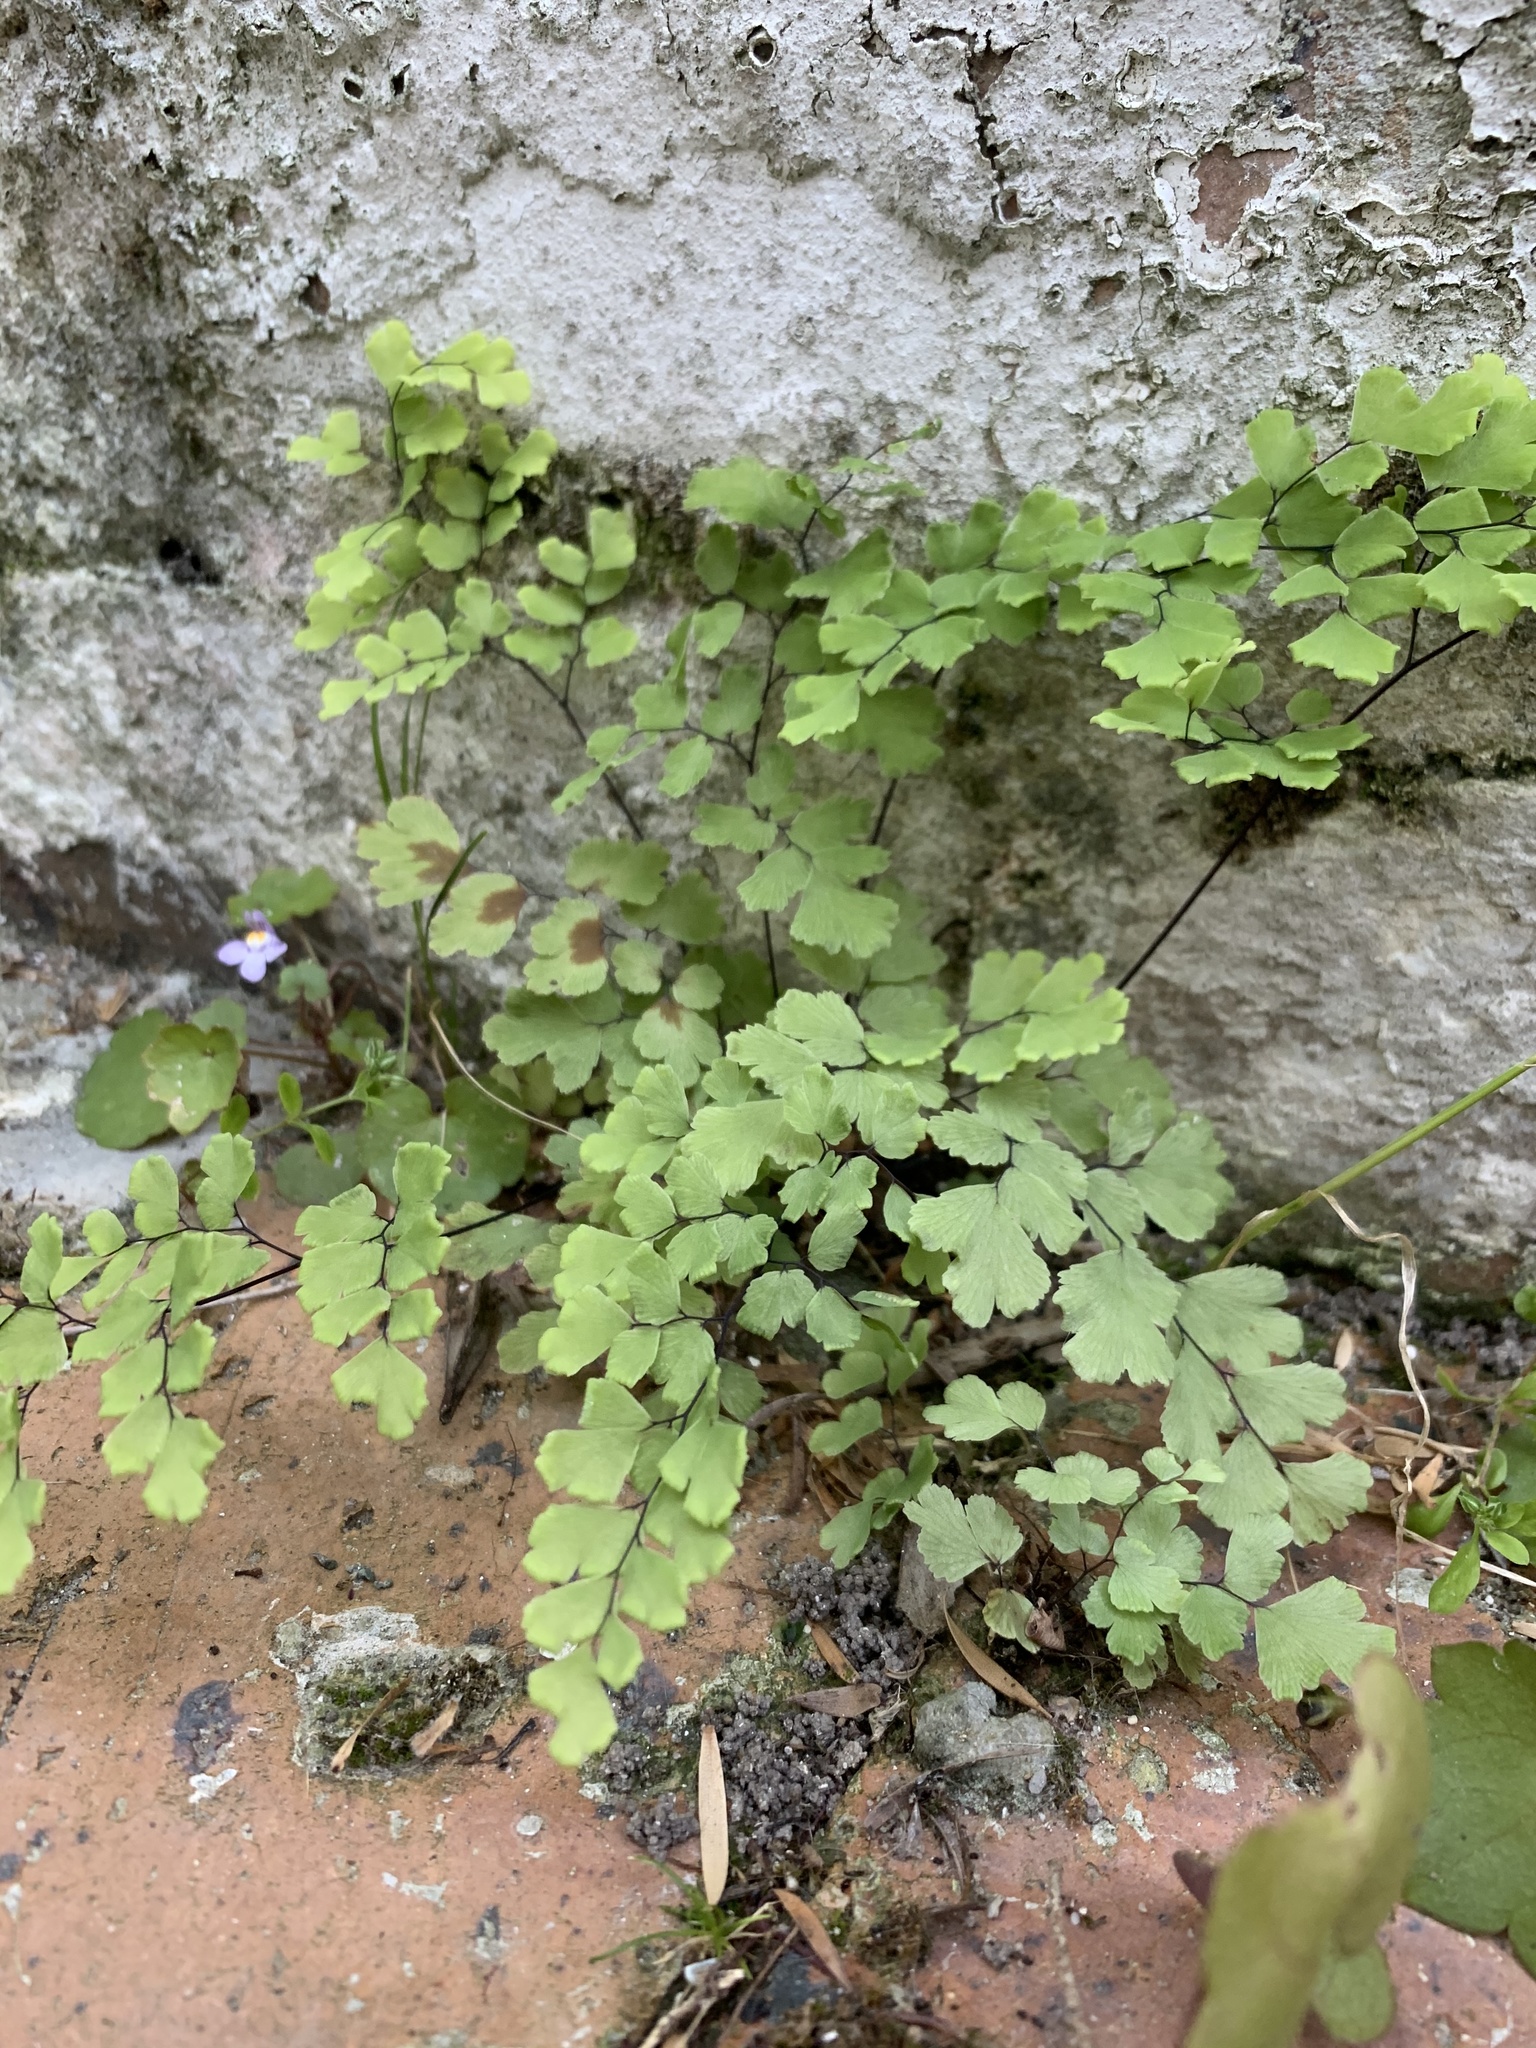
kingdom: Plantae
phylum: Tracheophyta
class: Polypodiopsida
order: Polypodiales
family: Pteridaceae
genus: Adiantum
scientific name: Adiantum capillus-veneris
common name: Maidenhair fern
